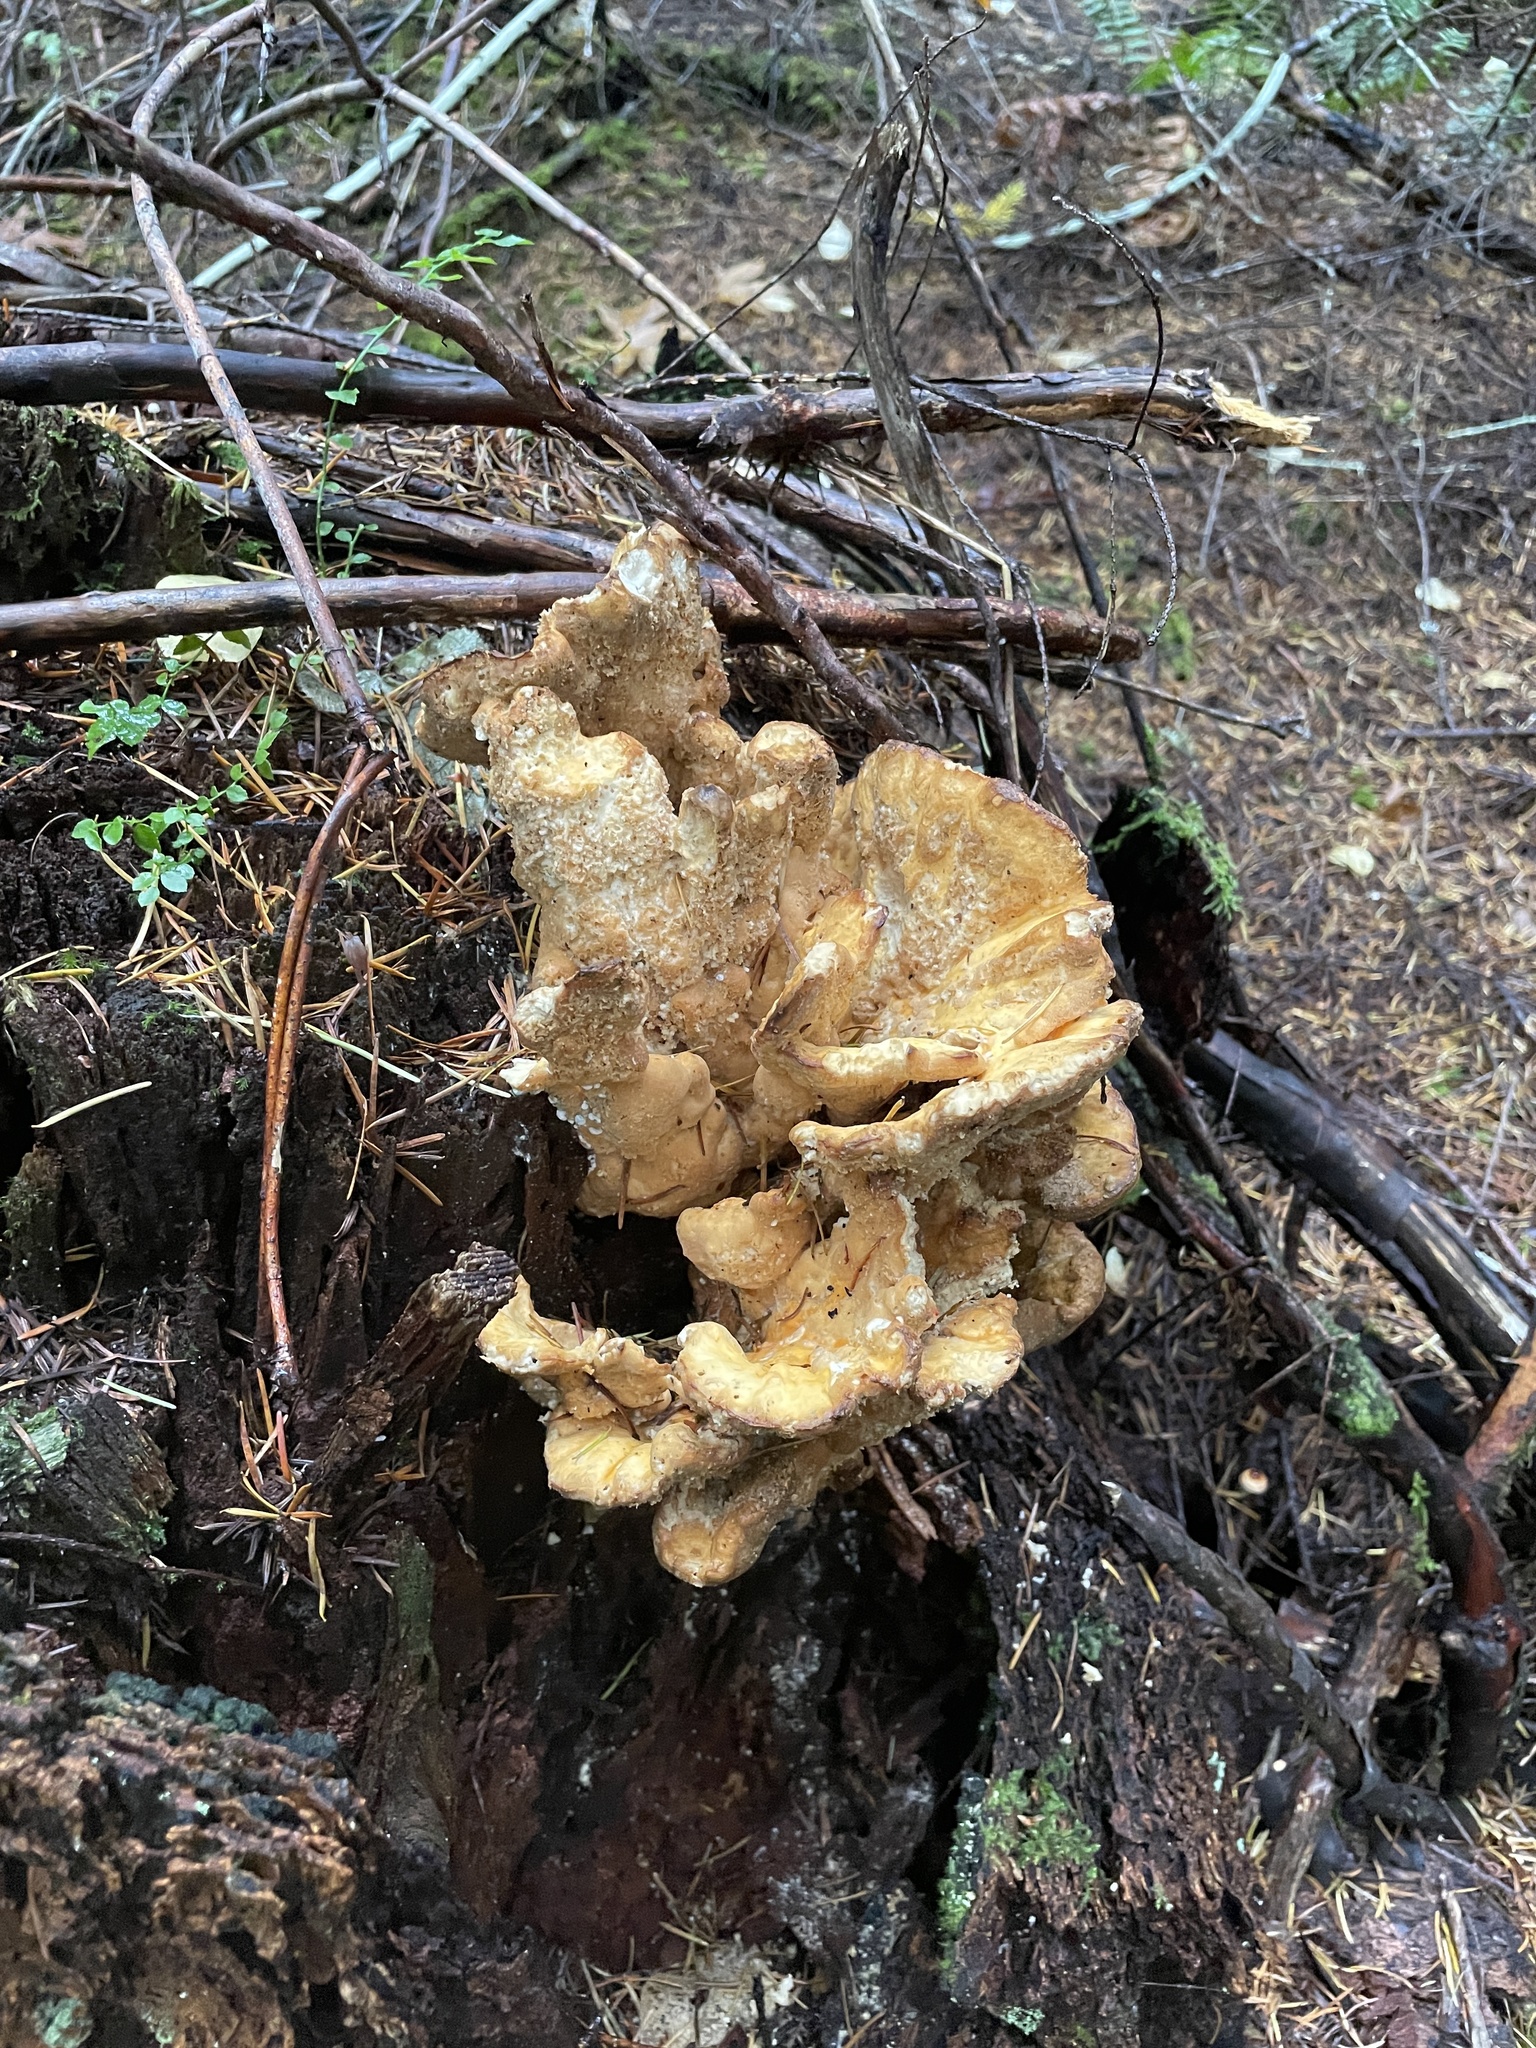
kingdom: Fungi
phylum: Basidiomycota
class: Agaricomycetes
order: Polyporales
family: Laetiporaceae
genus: Laetiporus
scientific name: Laetiporus conifericola
